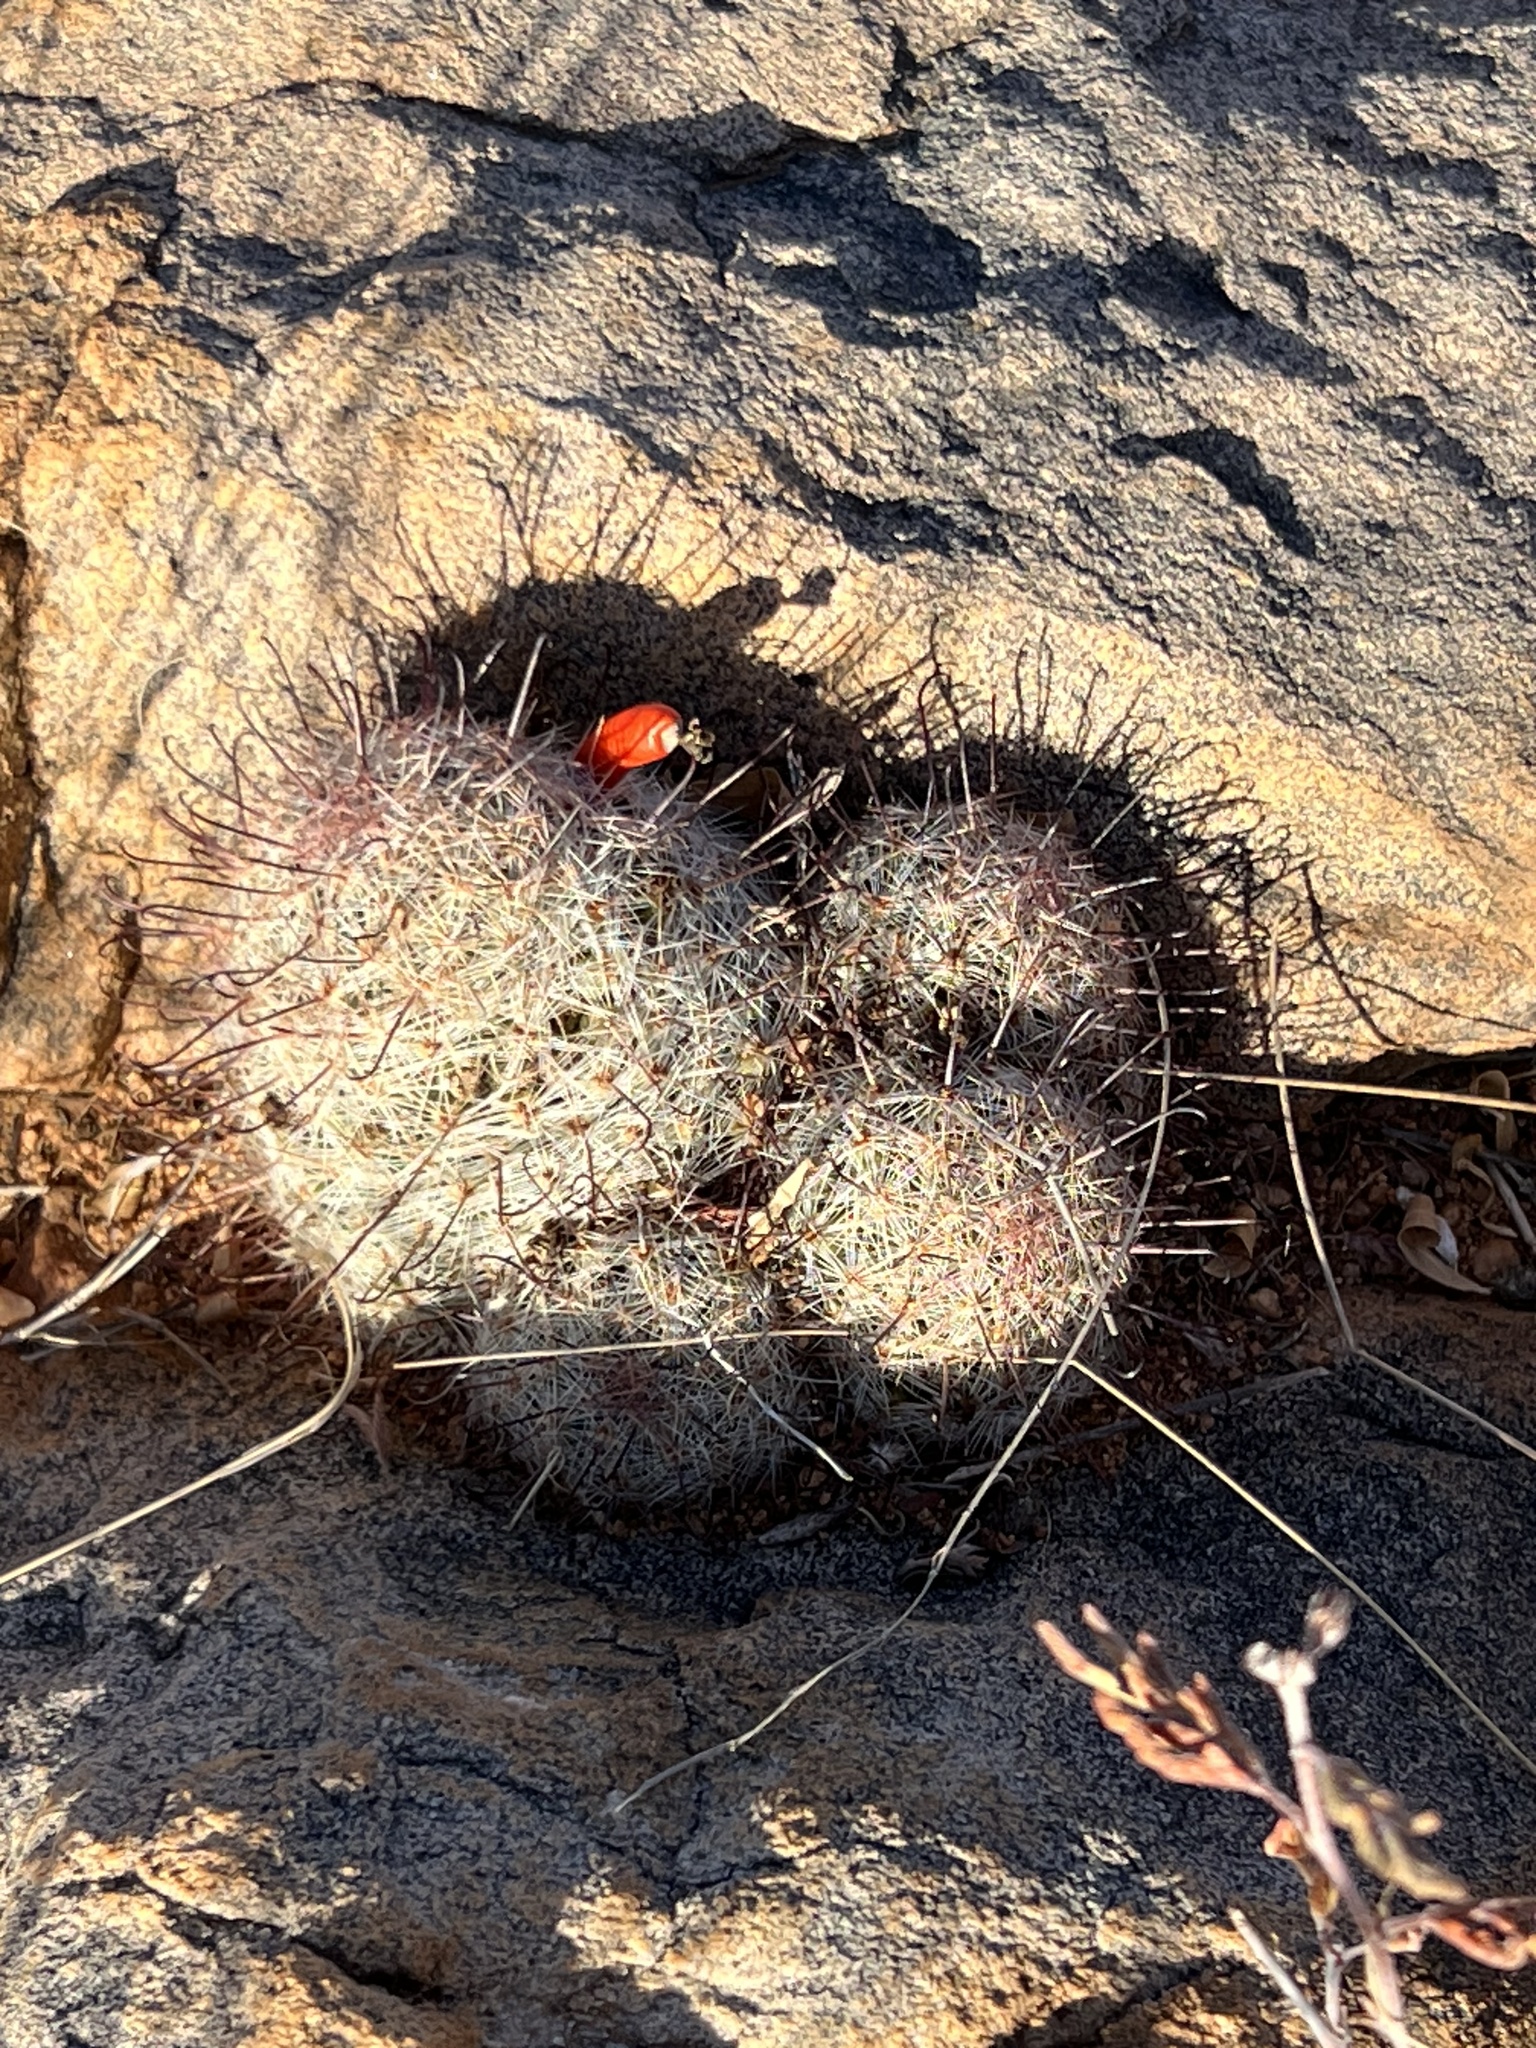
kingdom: Plantae
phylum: Tracheophyta
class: Magnoliopsida
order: Caryophyllales
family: Cactaceae
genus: Cochemiea
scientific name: Cochemiea grahamii
